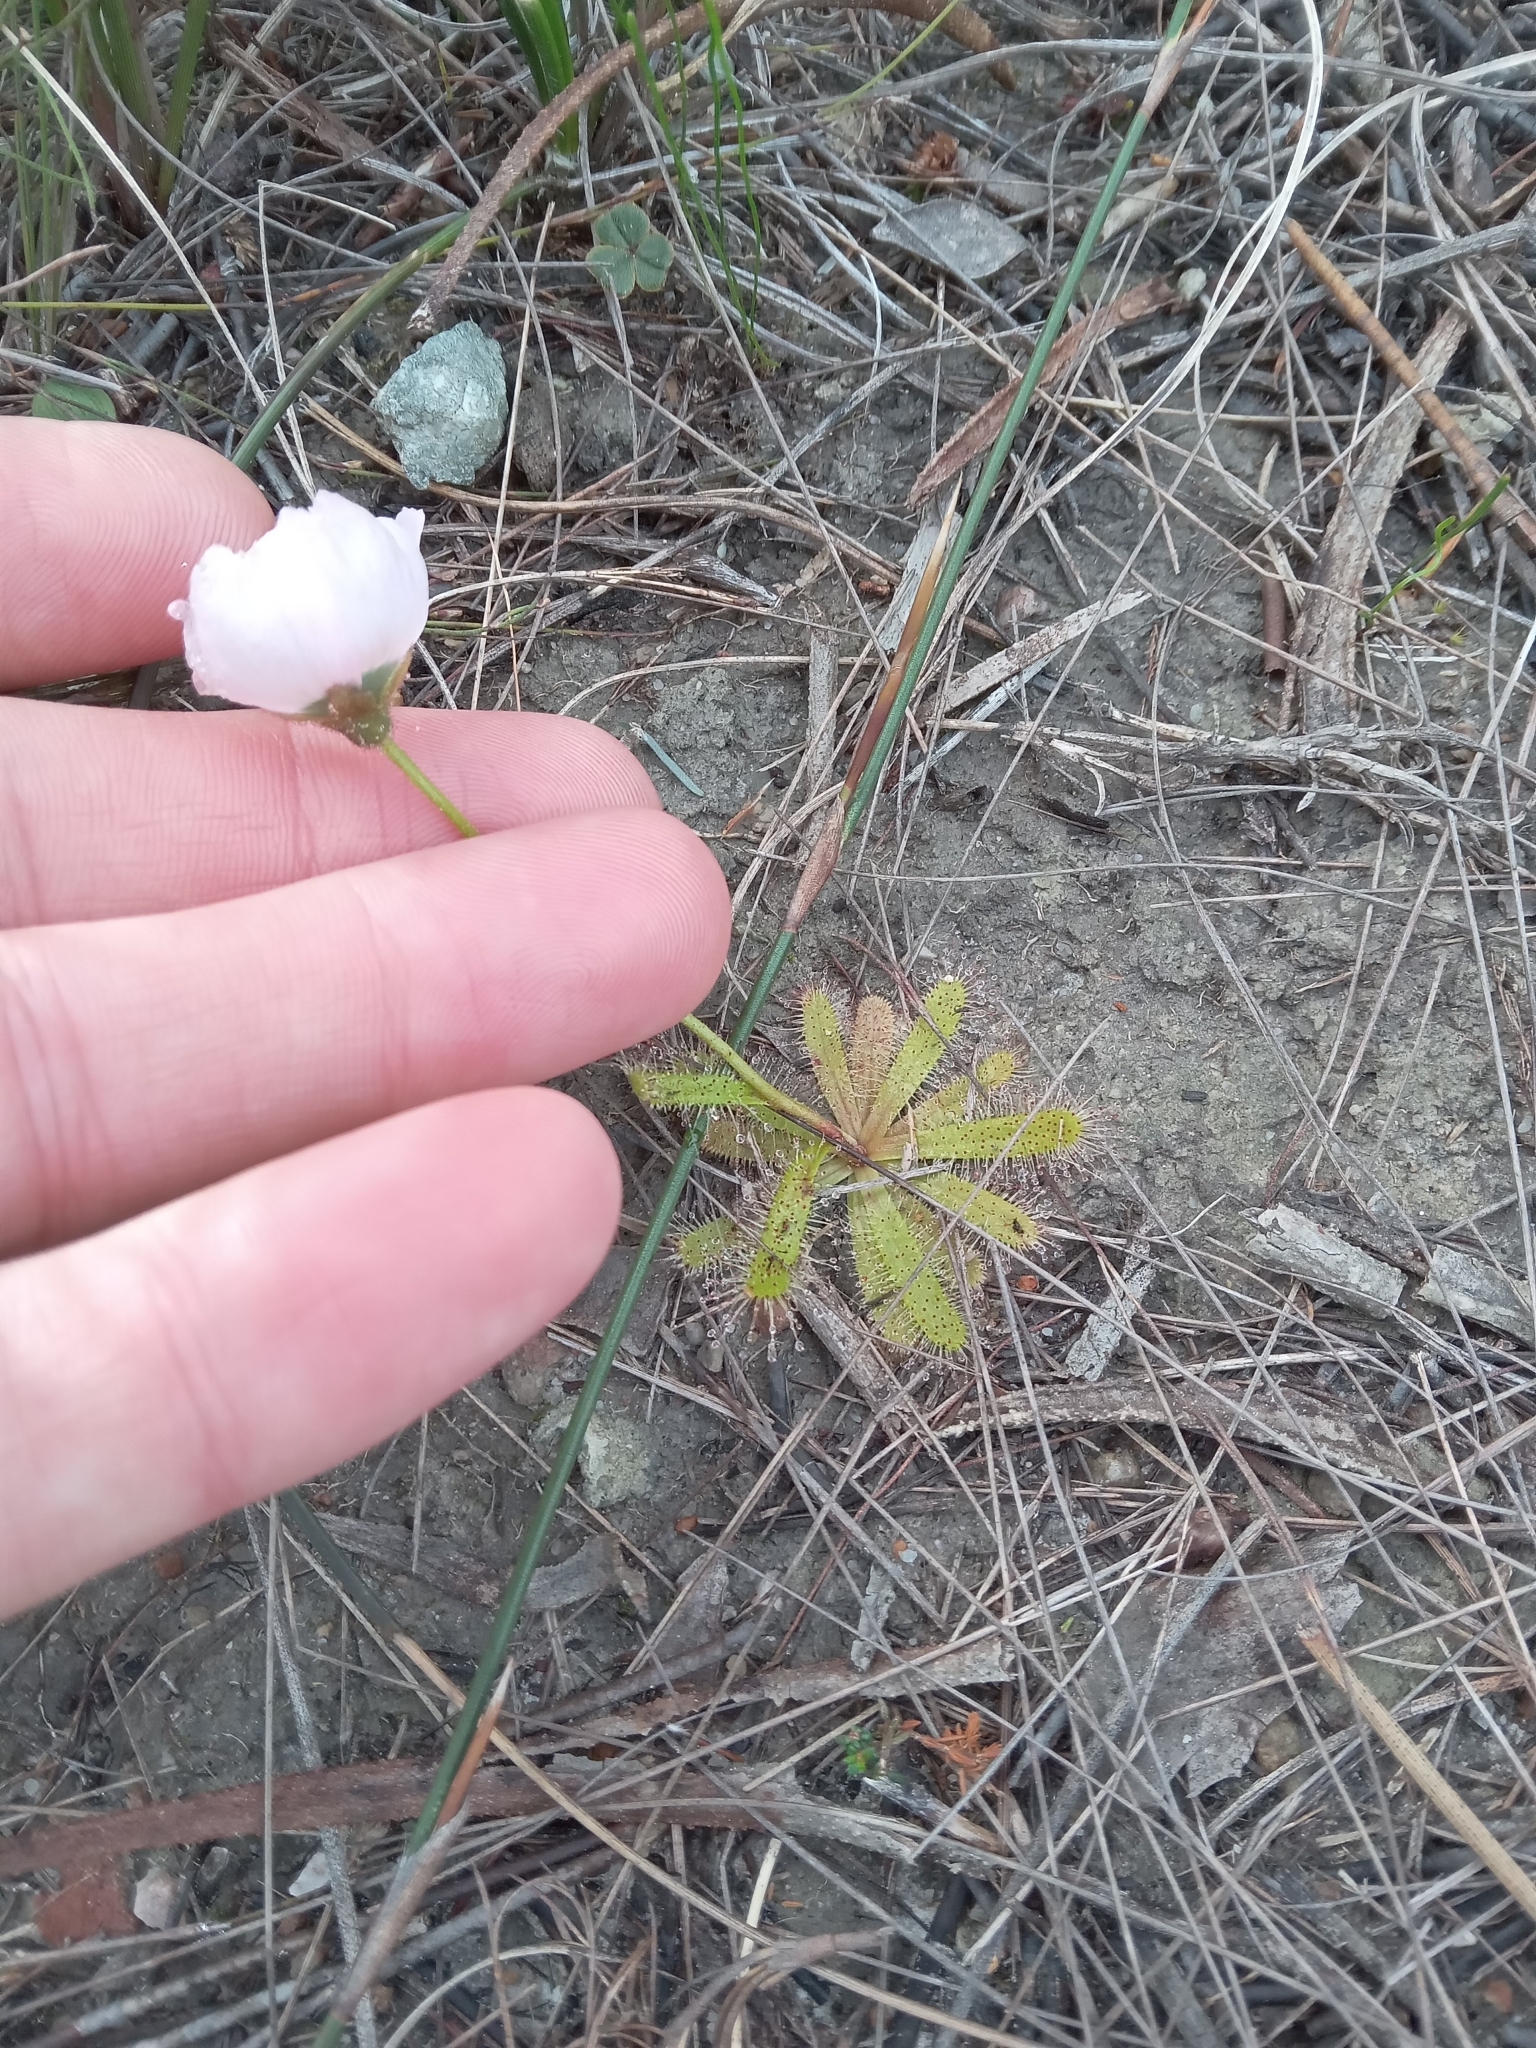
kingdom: Plantae
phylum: Tracheophyta
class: Magnoliopsida
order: Caryophyllales
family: Droseraceae
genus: Drosera
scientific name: Drosera cistiflora
